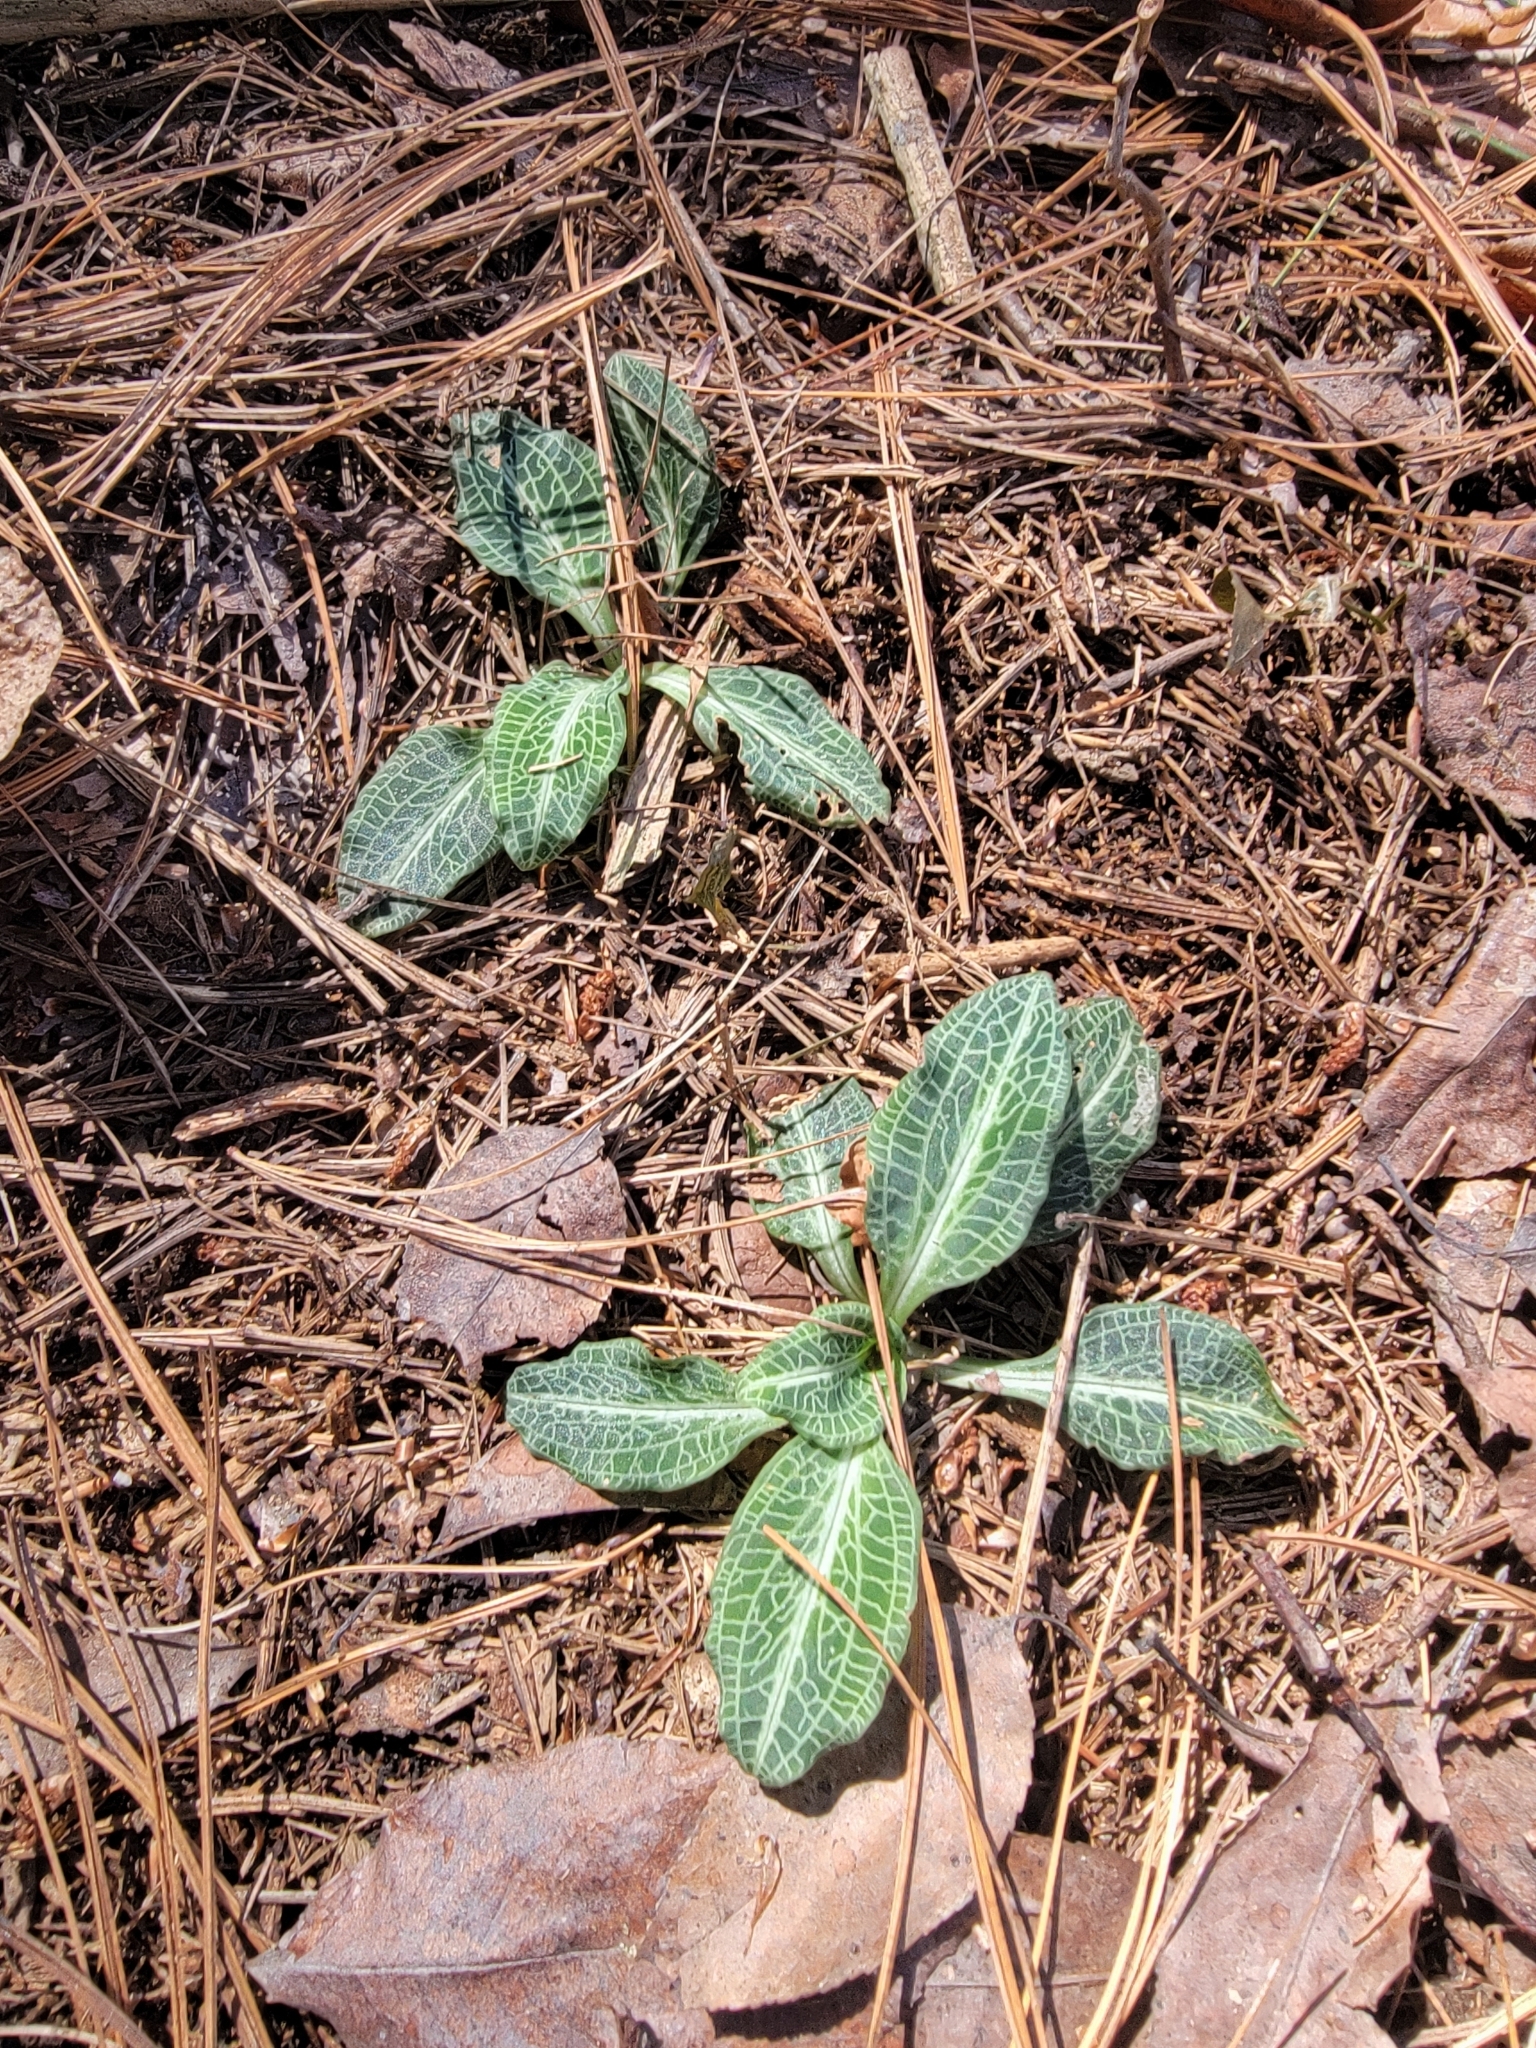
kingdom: Plantae
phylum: Tracheophyta
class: Liliopsida
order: Asparagales
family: Orchidaceae
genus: Goodyera
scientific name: Goodyera pubescens
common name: Downy rattlesnake-plantain
